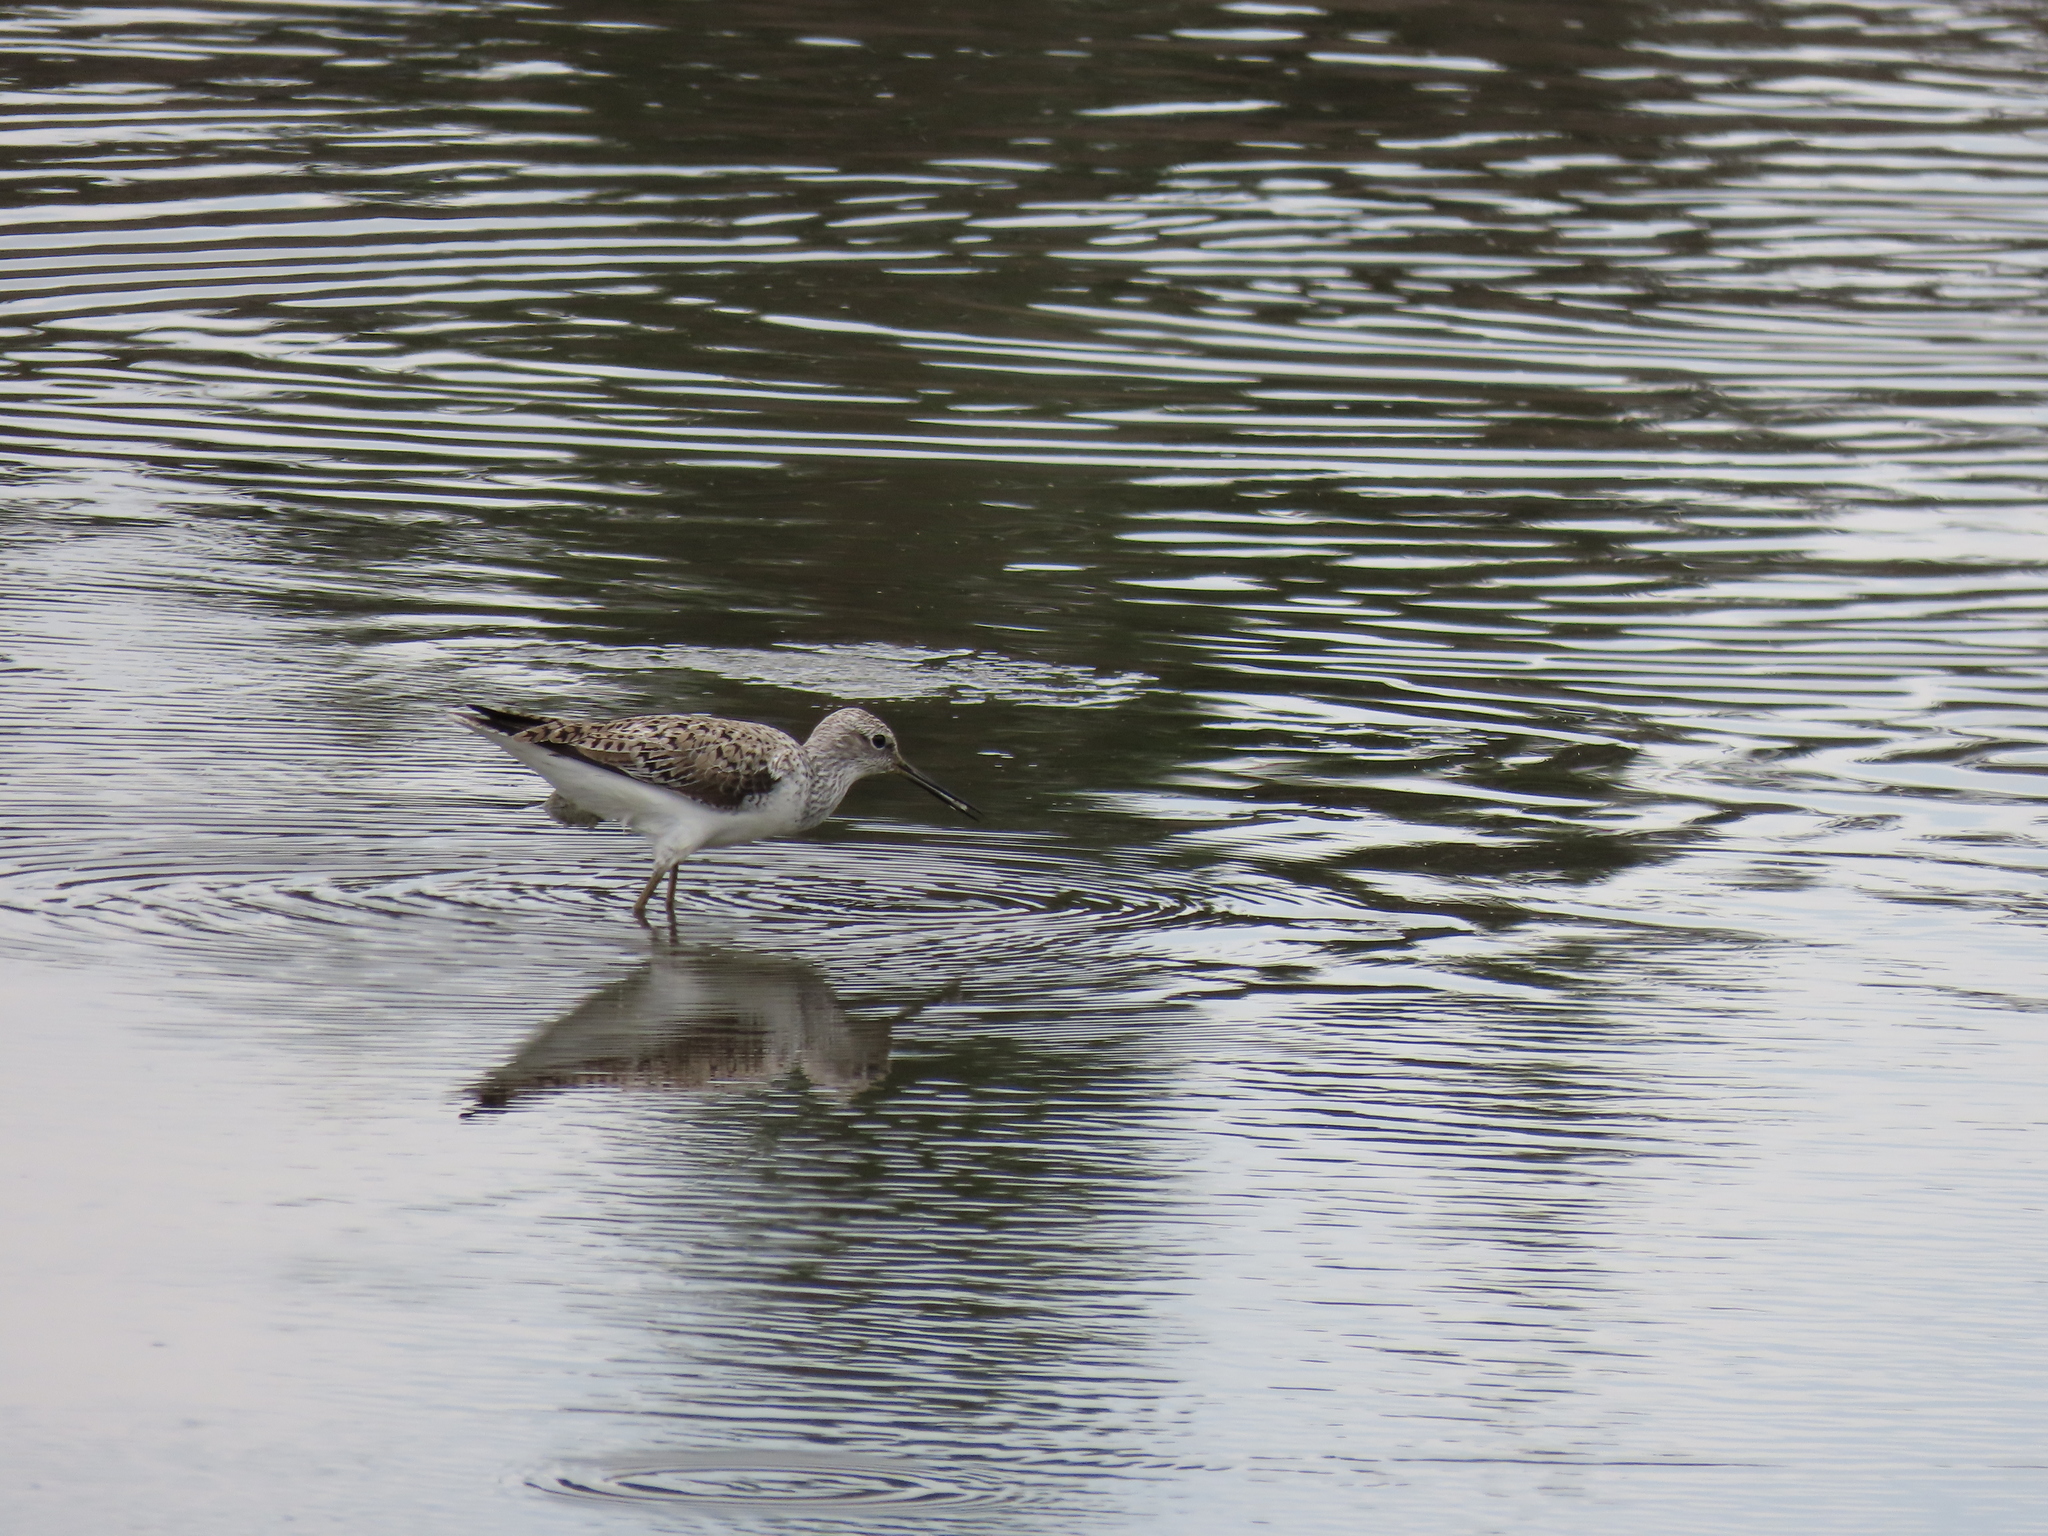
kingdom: Animalia
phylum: Chordata
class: Aves
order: Charadriiformes
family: Scolopacidae
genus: Tringa
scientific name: Tringa stagnatilis
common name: Marsh sandpiper
